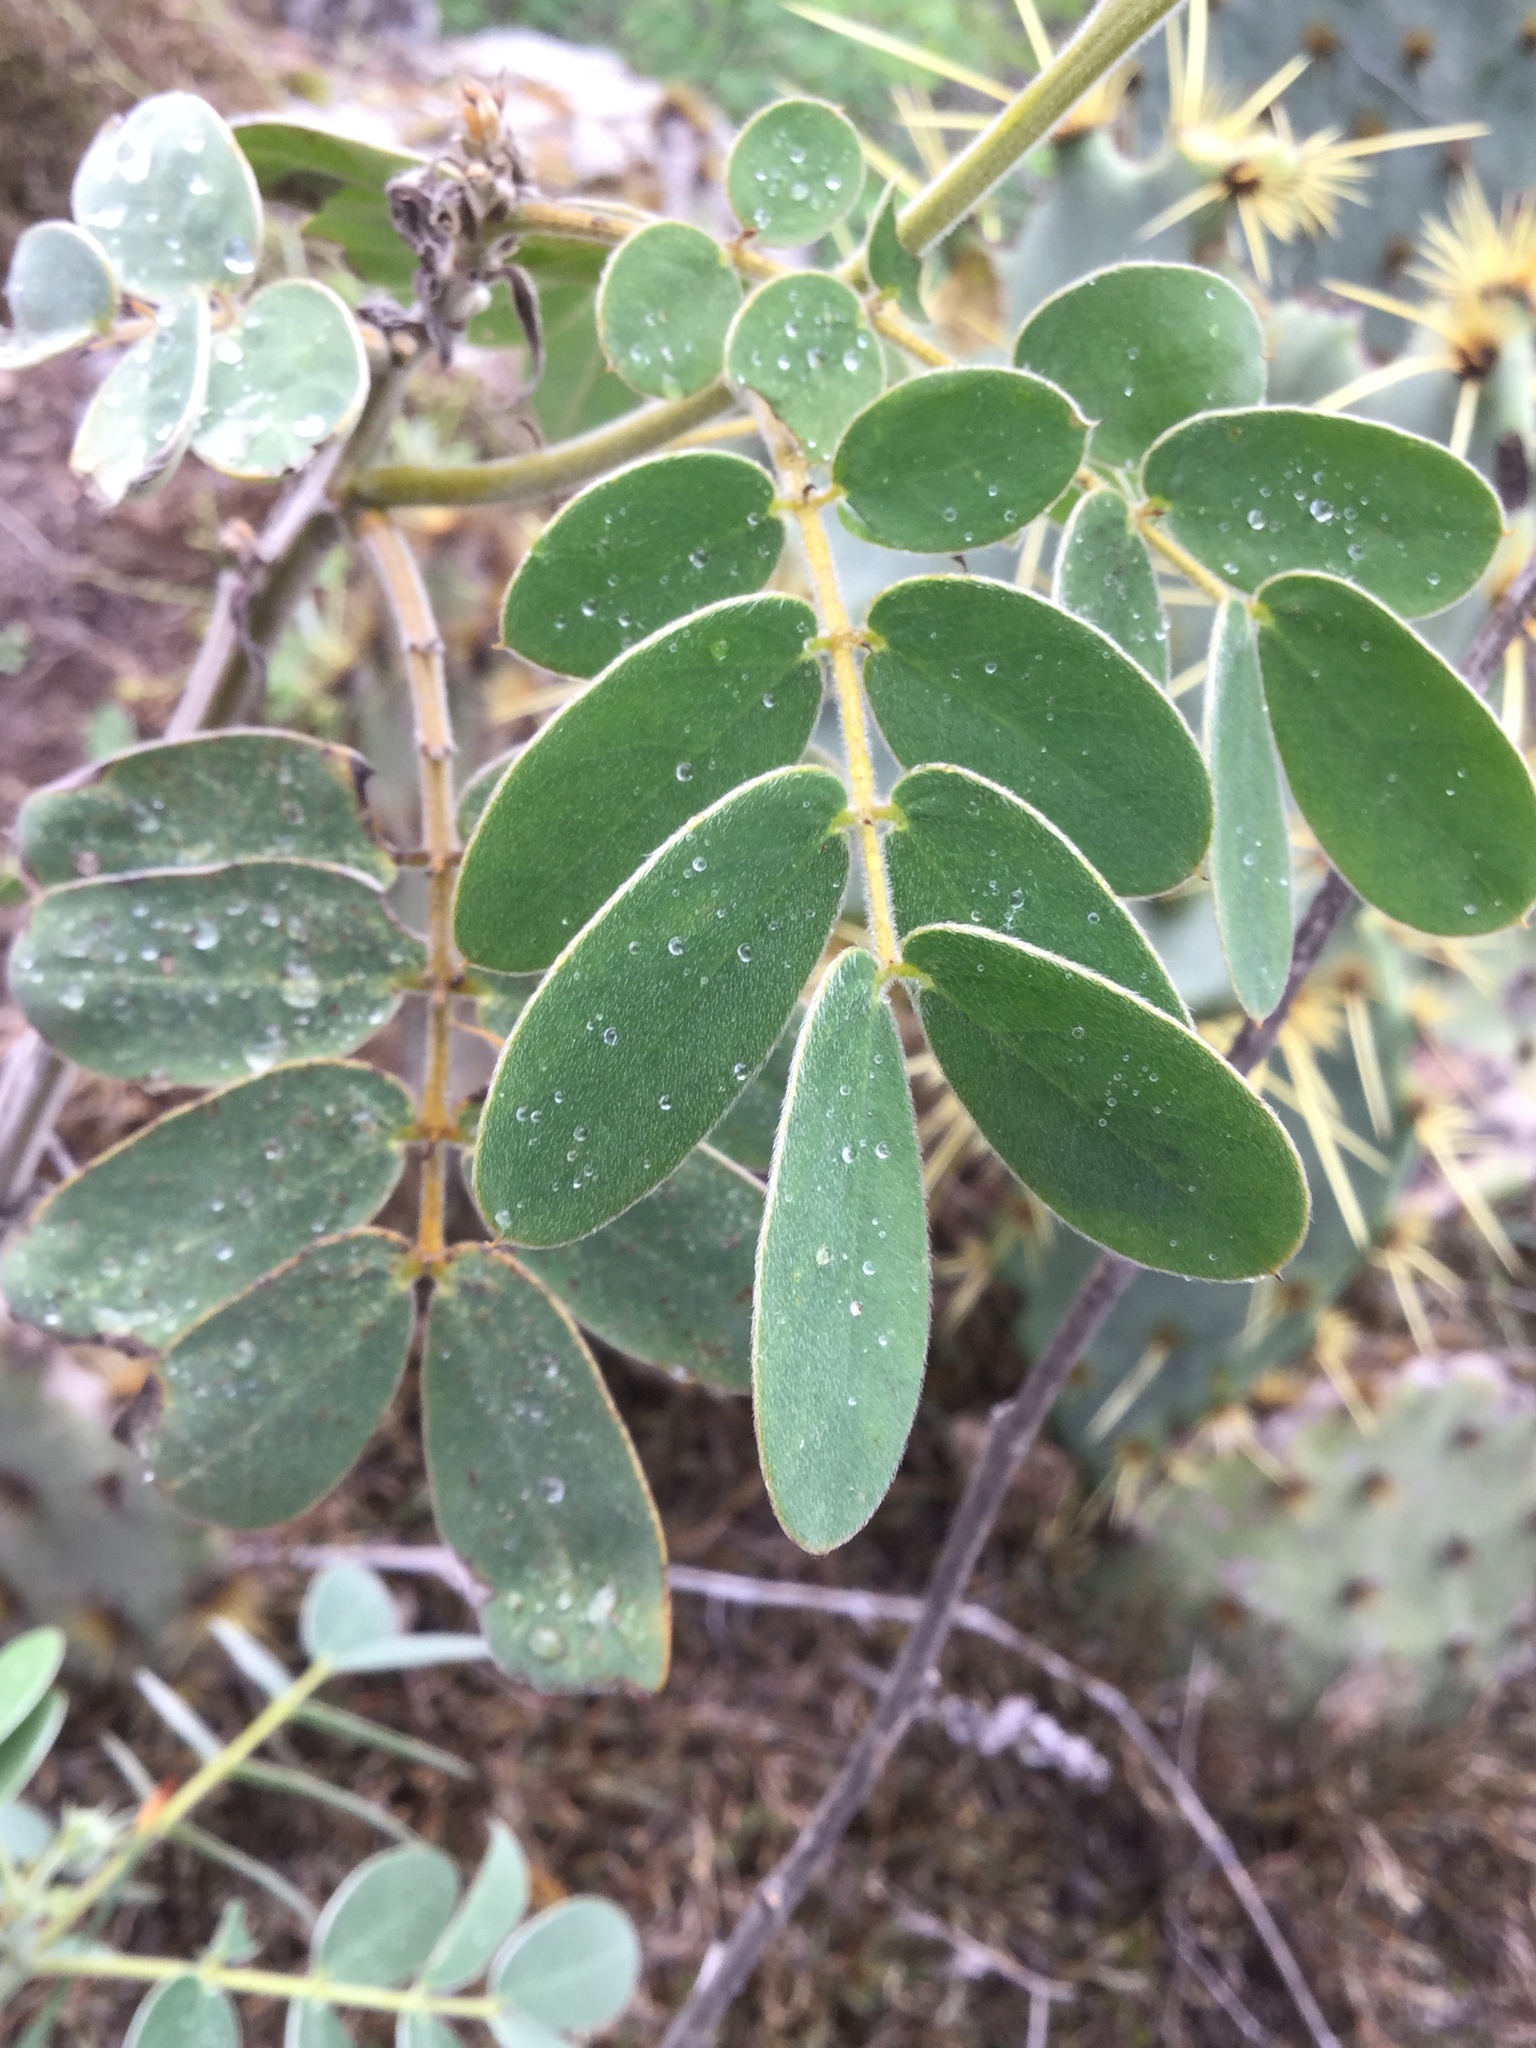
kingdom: Plantae
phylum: Tracheophyta
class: Magnoliopsida
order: Fabales
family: Fabaceae
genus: Senna
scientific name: Senna lindheimeriana
